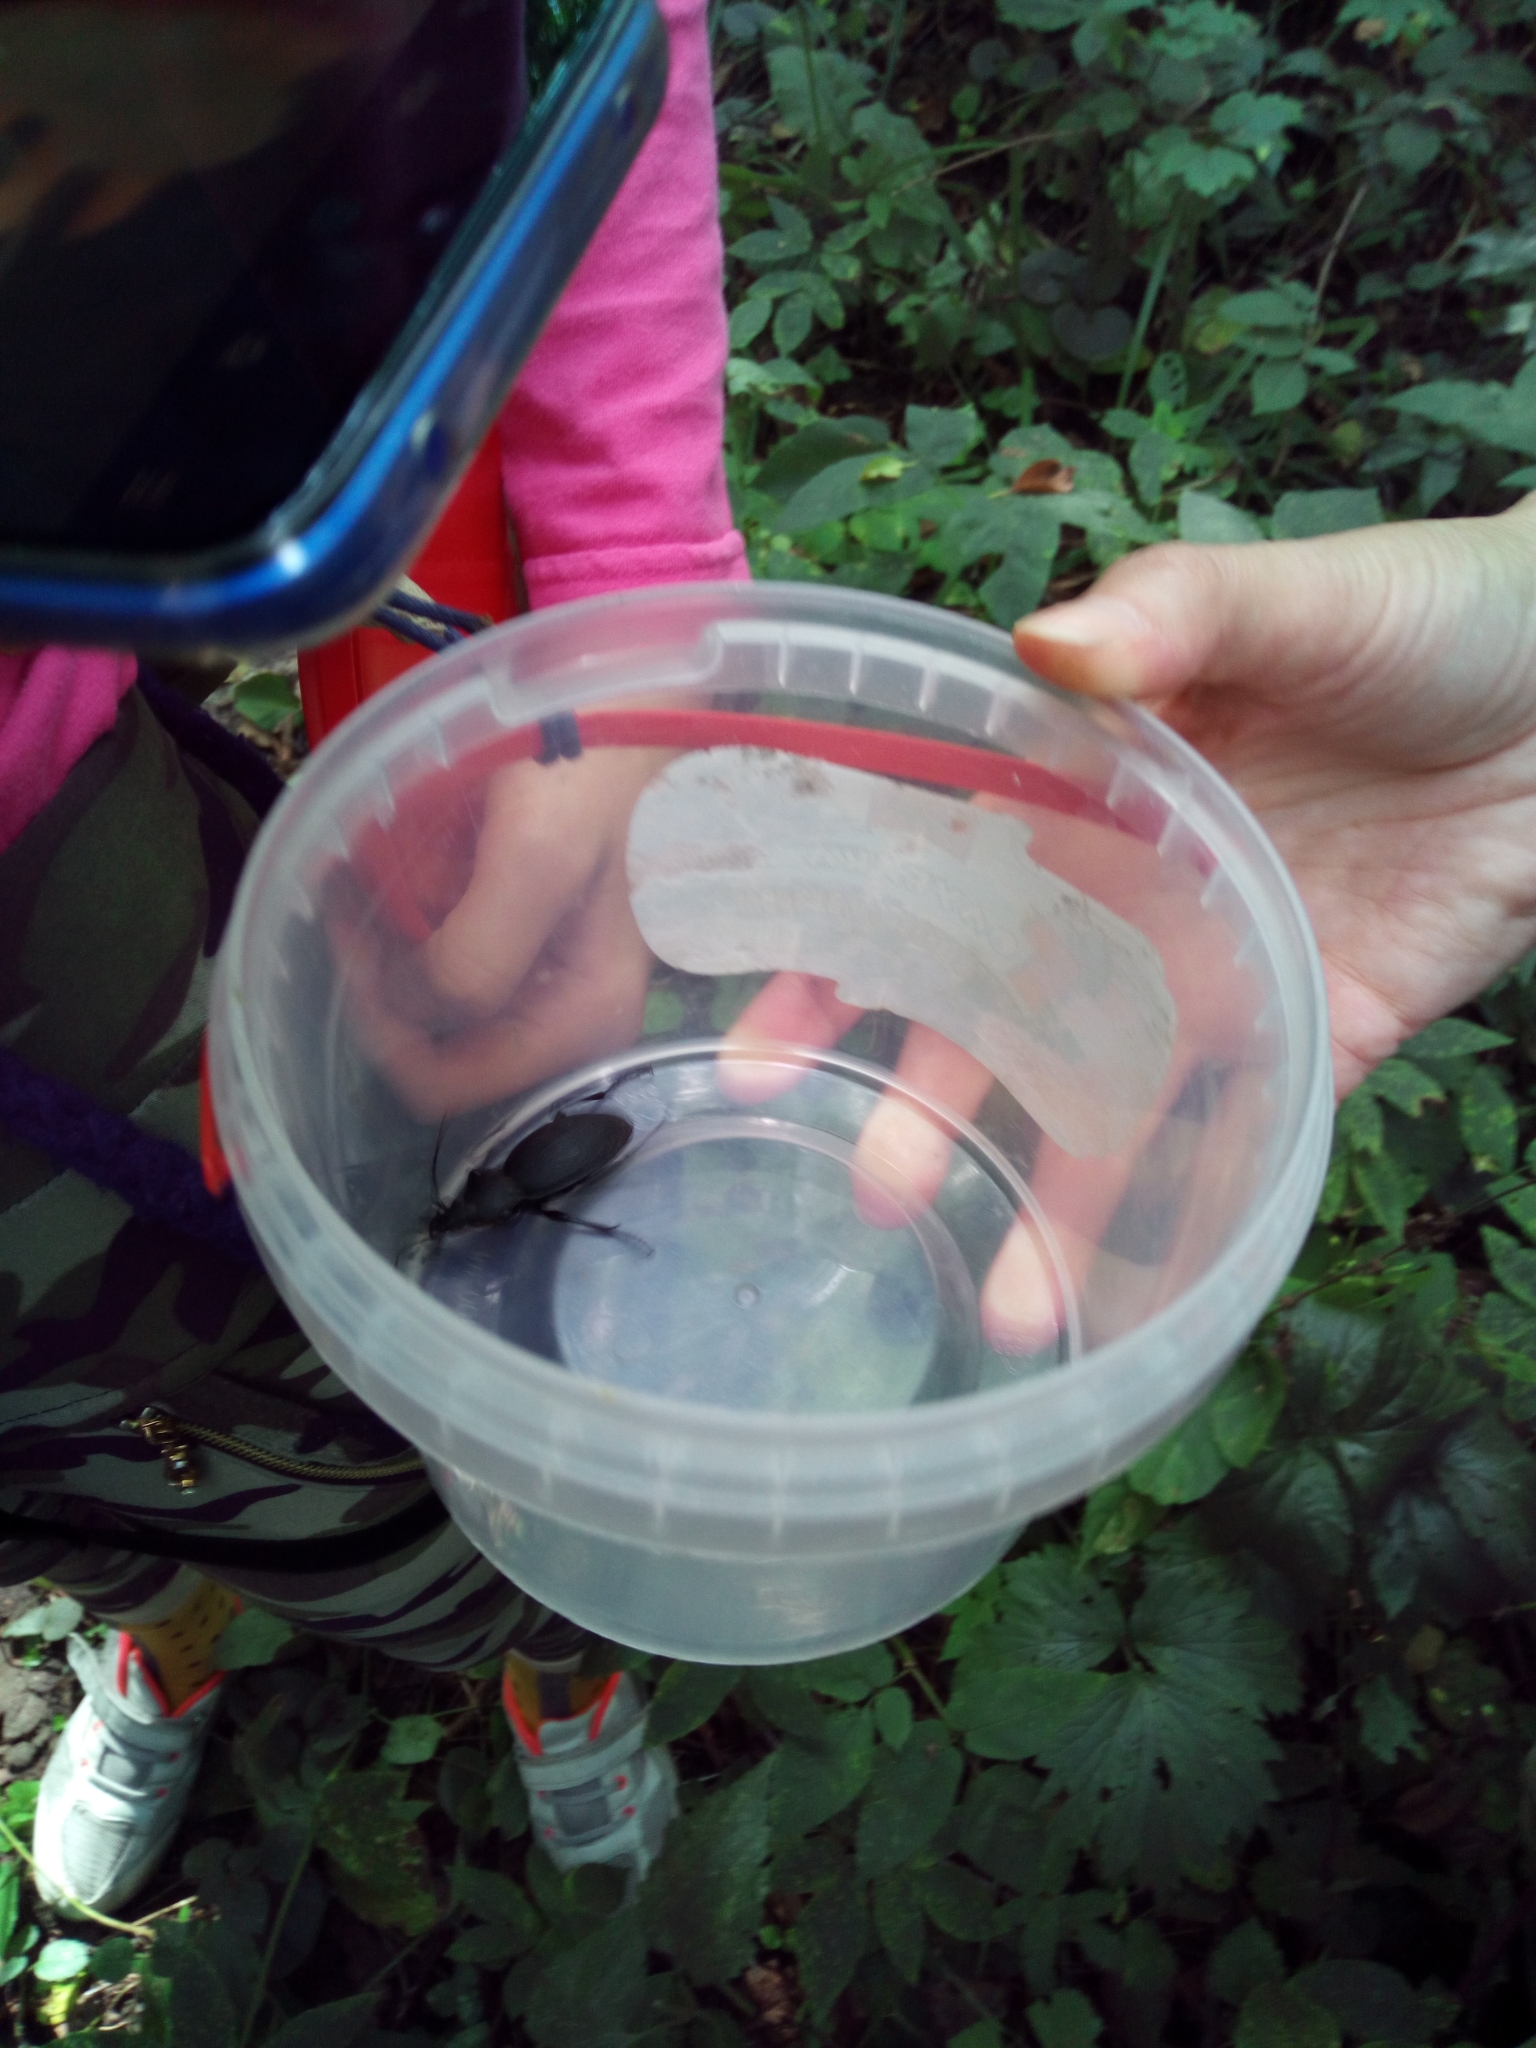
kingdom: Animalia
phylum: Arthropoda
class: Insecta
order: Coleoptera
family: Carabidae
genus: Carabus
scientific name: Carabus coriaceus
